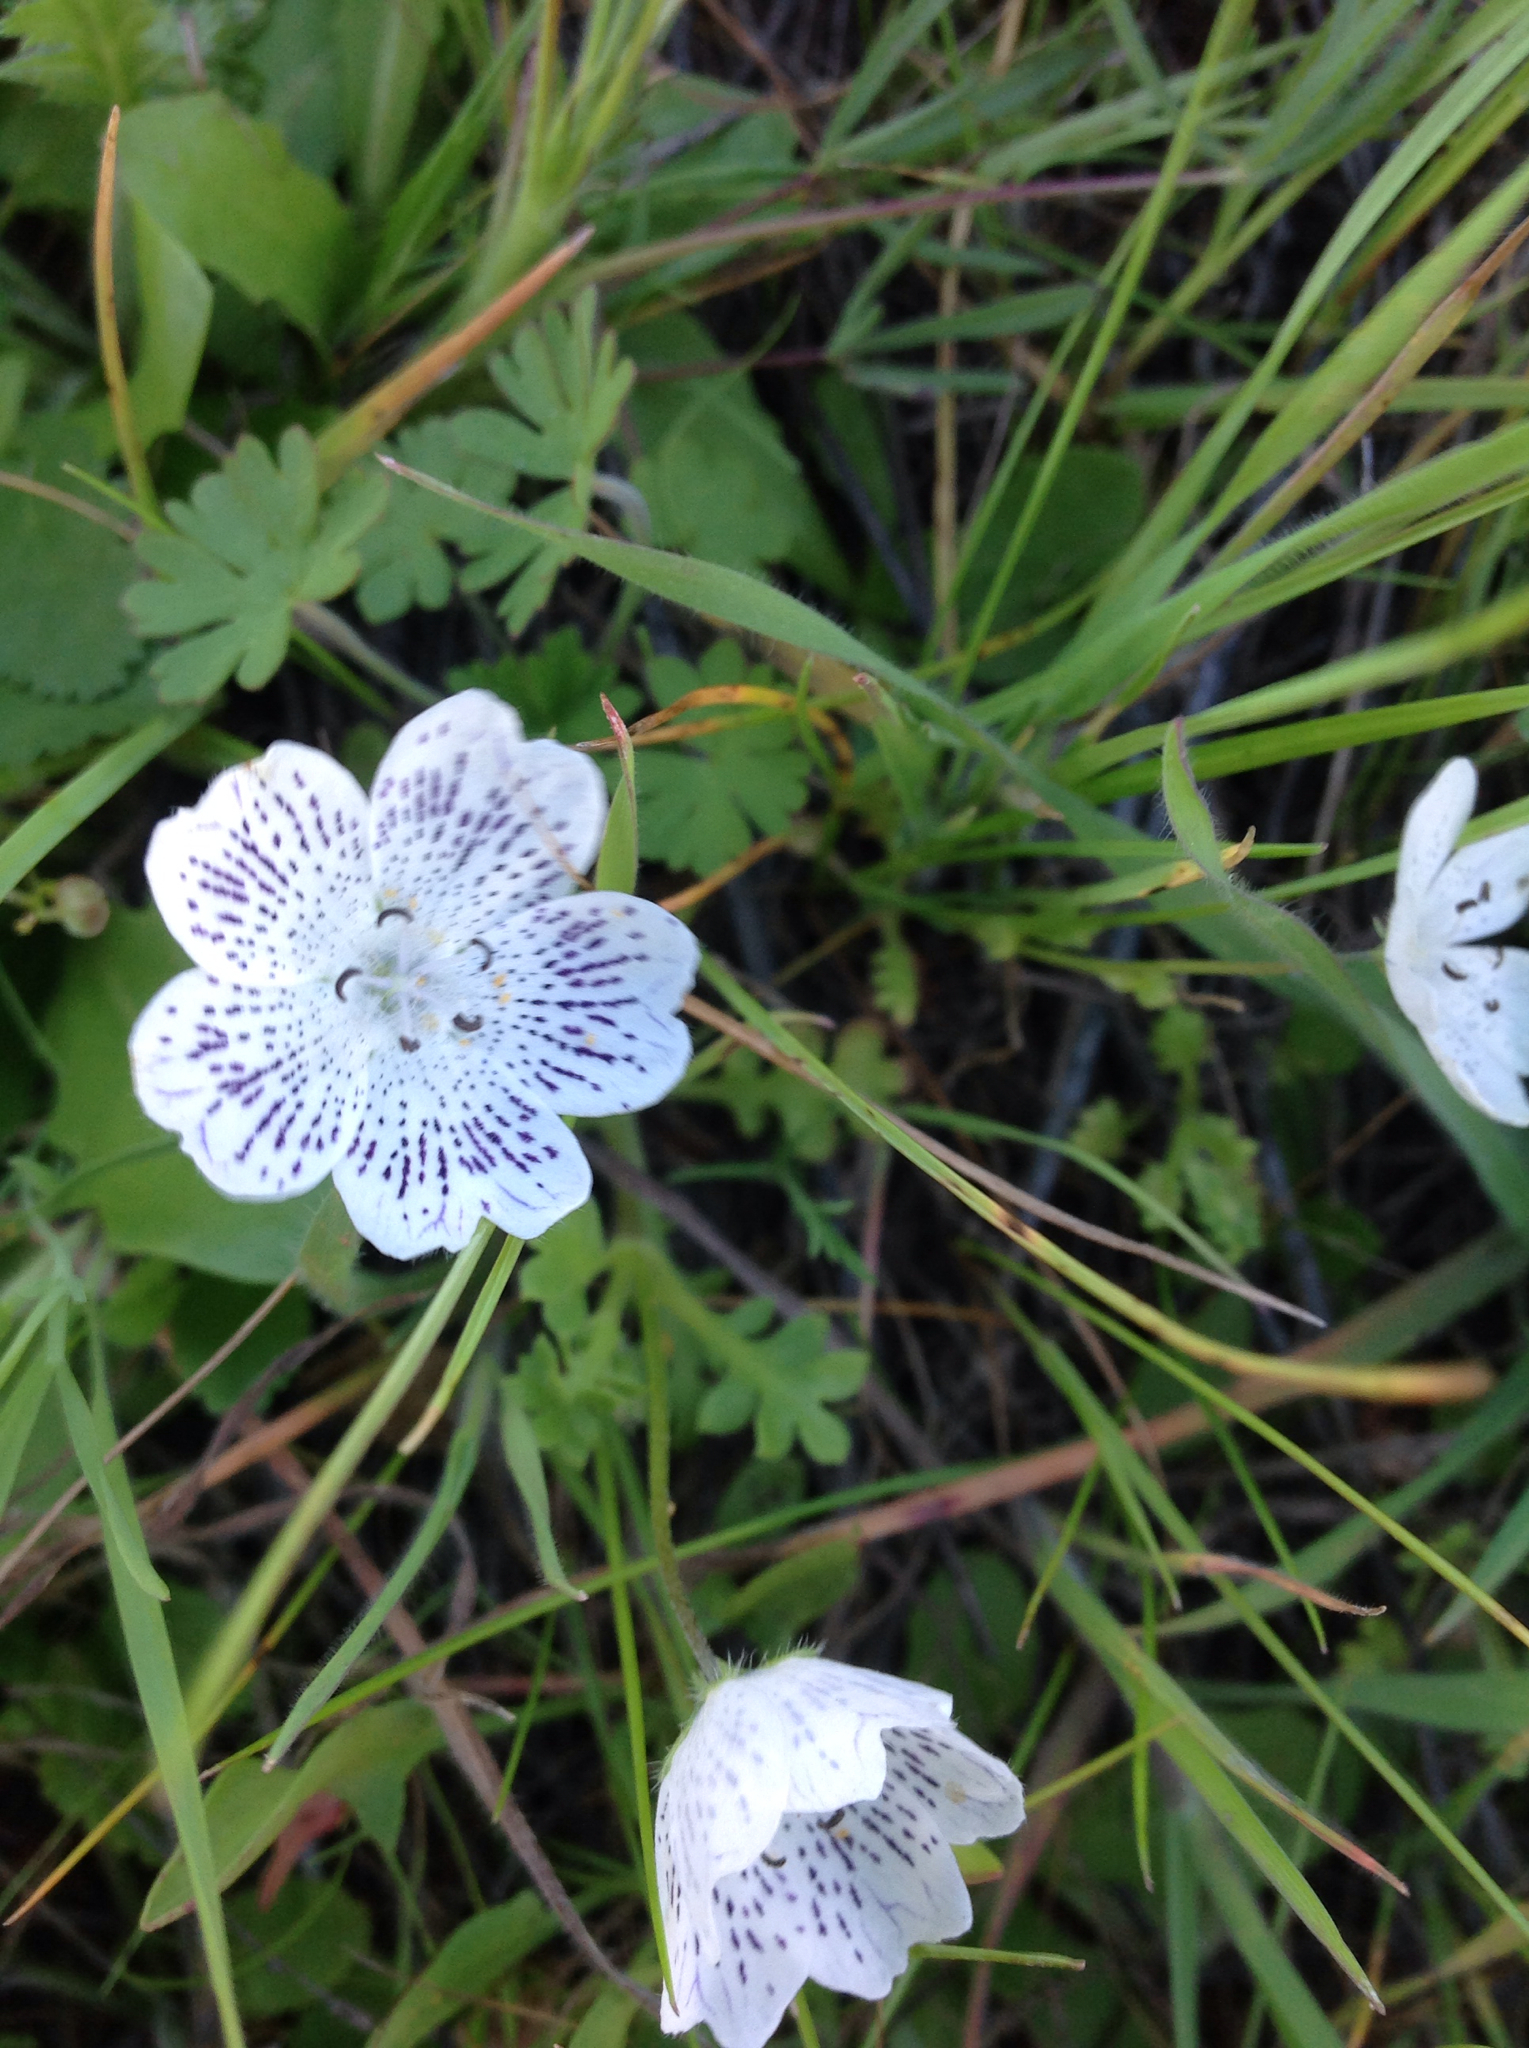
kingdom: Plantae
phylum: Tracheophyta
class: Magnoliopsida
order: Boraginales
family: Hydrophyllaceae
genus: Nemophila
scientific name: Nemophila menziesii
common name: Baby's-blue-eyes
